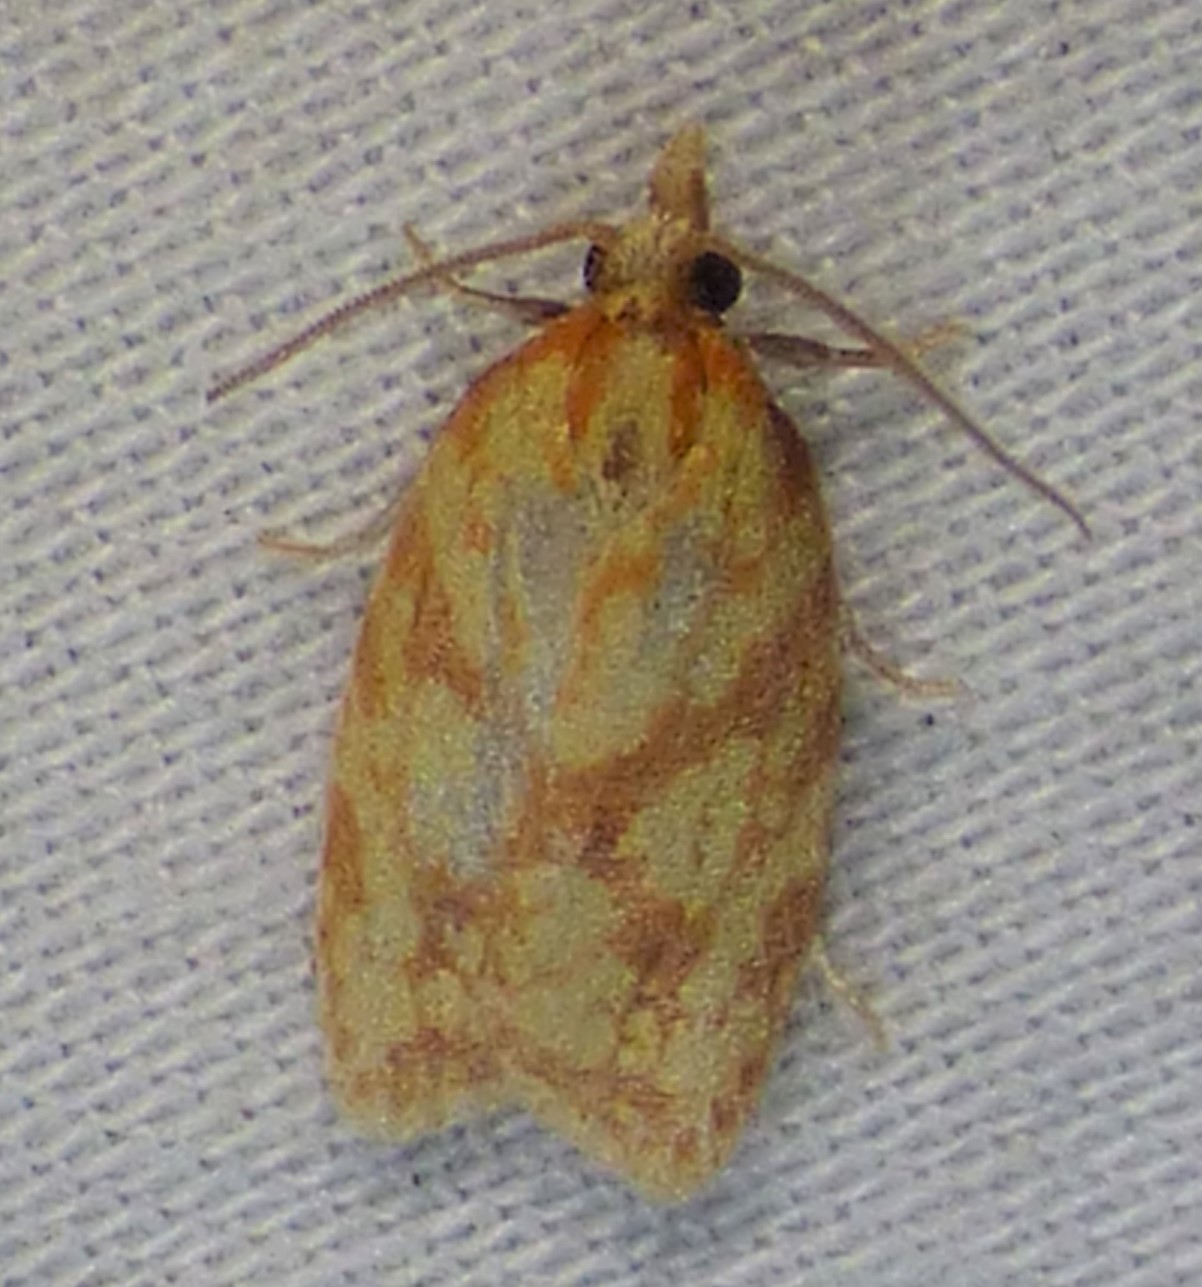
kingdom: Animalia
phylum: Arthropoda
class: Insecta
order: Lepidoptera
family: Tortricidae
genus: Sparganothis
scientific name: Sparganothis sulfureana
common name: Sparganothis fruitworm moth
